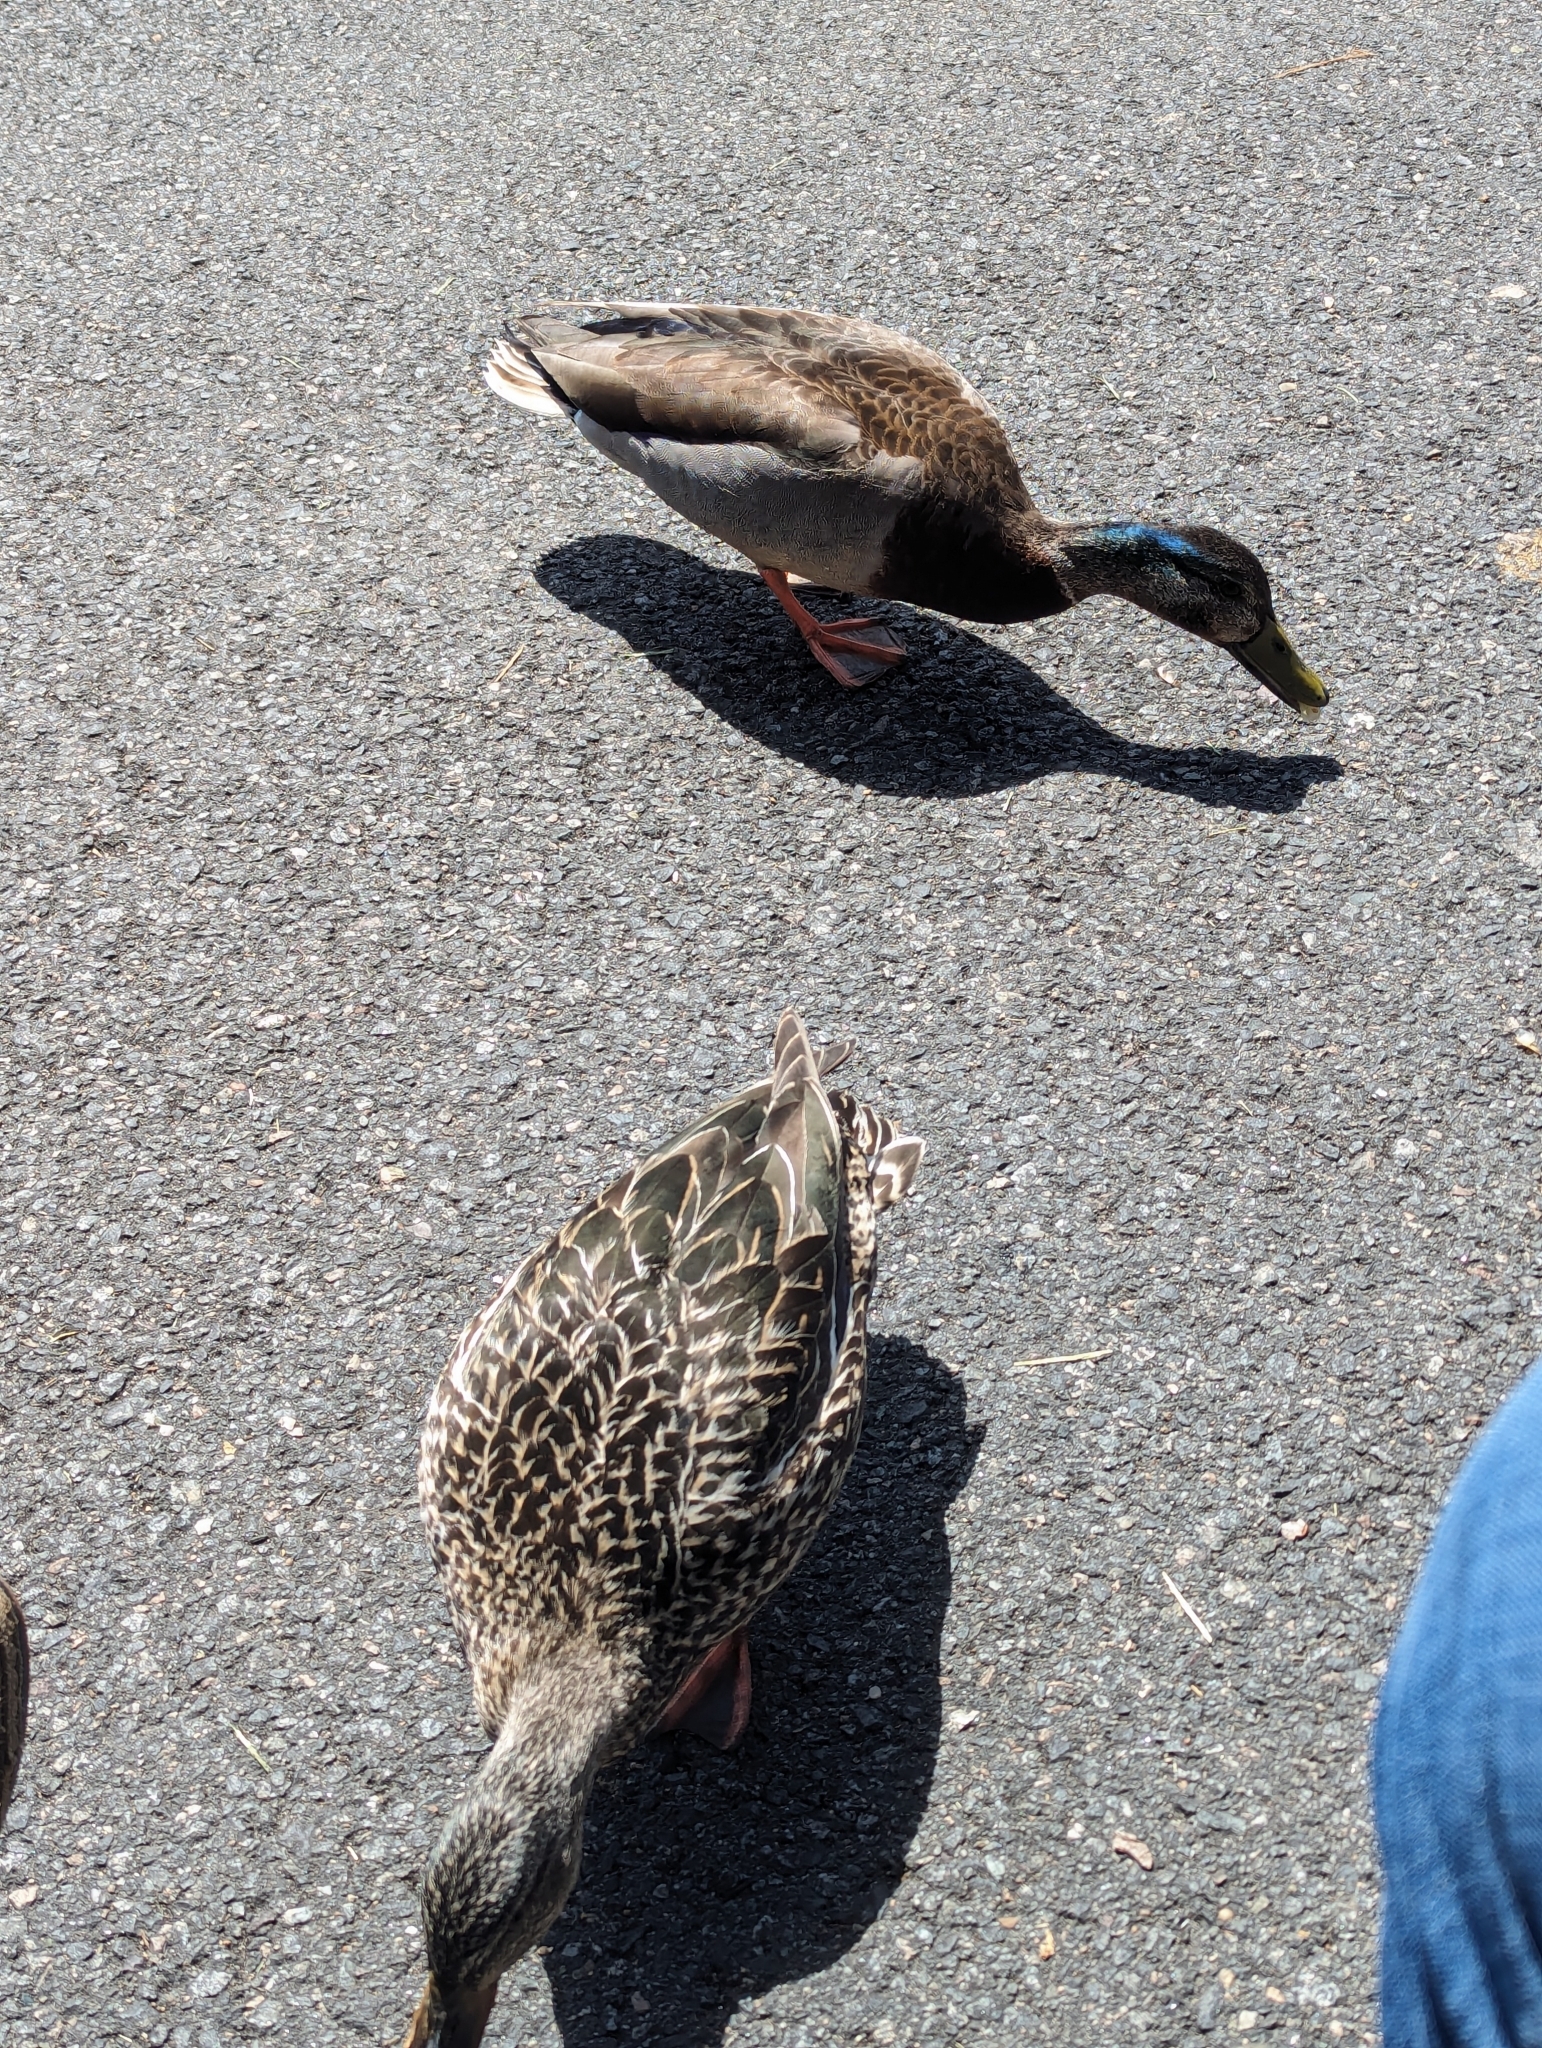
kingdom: Animalia
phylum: Chordata
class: Aves
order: Anseriformes
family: Anatidae
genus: Anas
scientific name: Anas platyrhynchos
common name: Mallard
